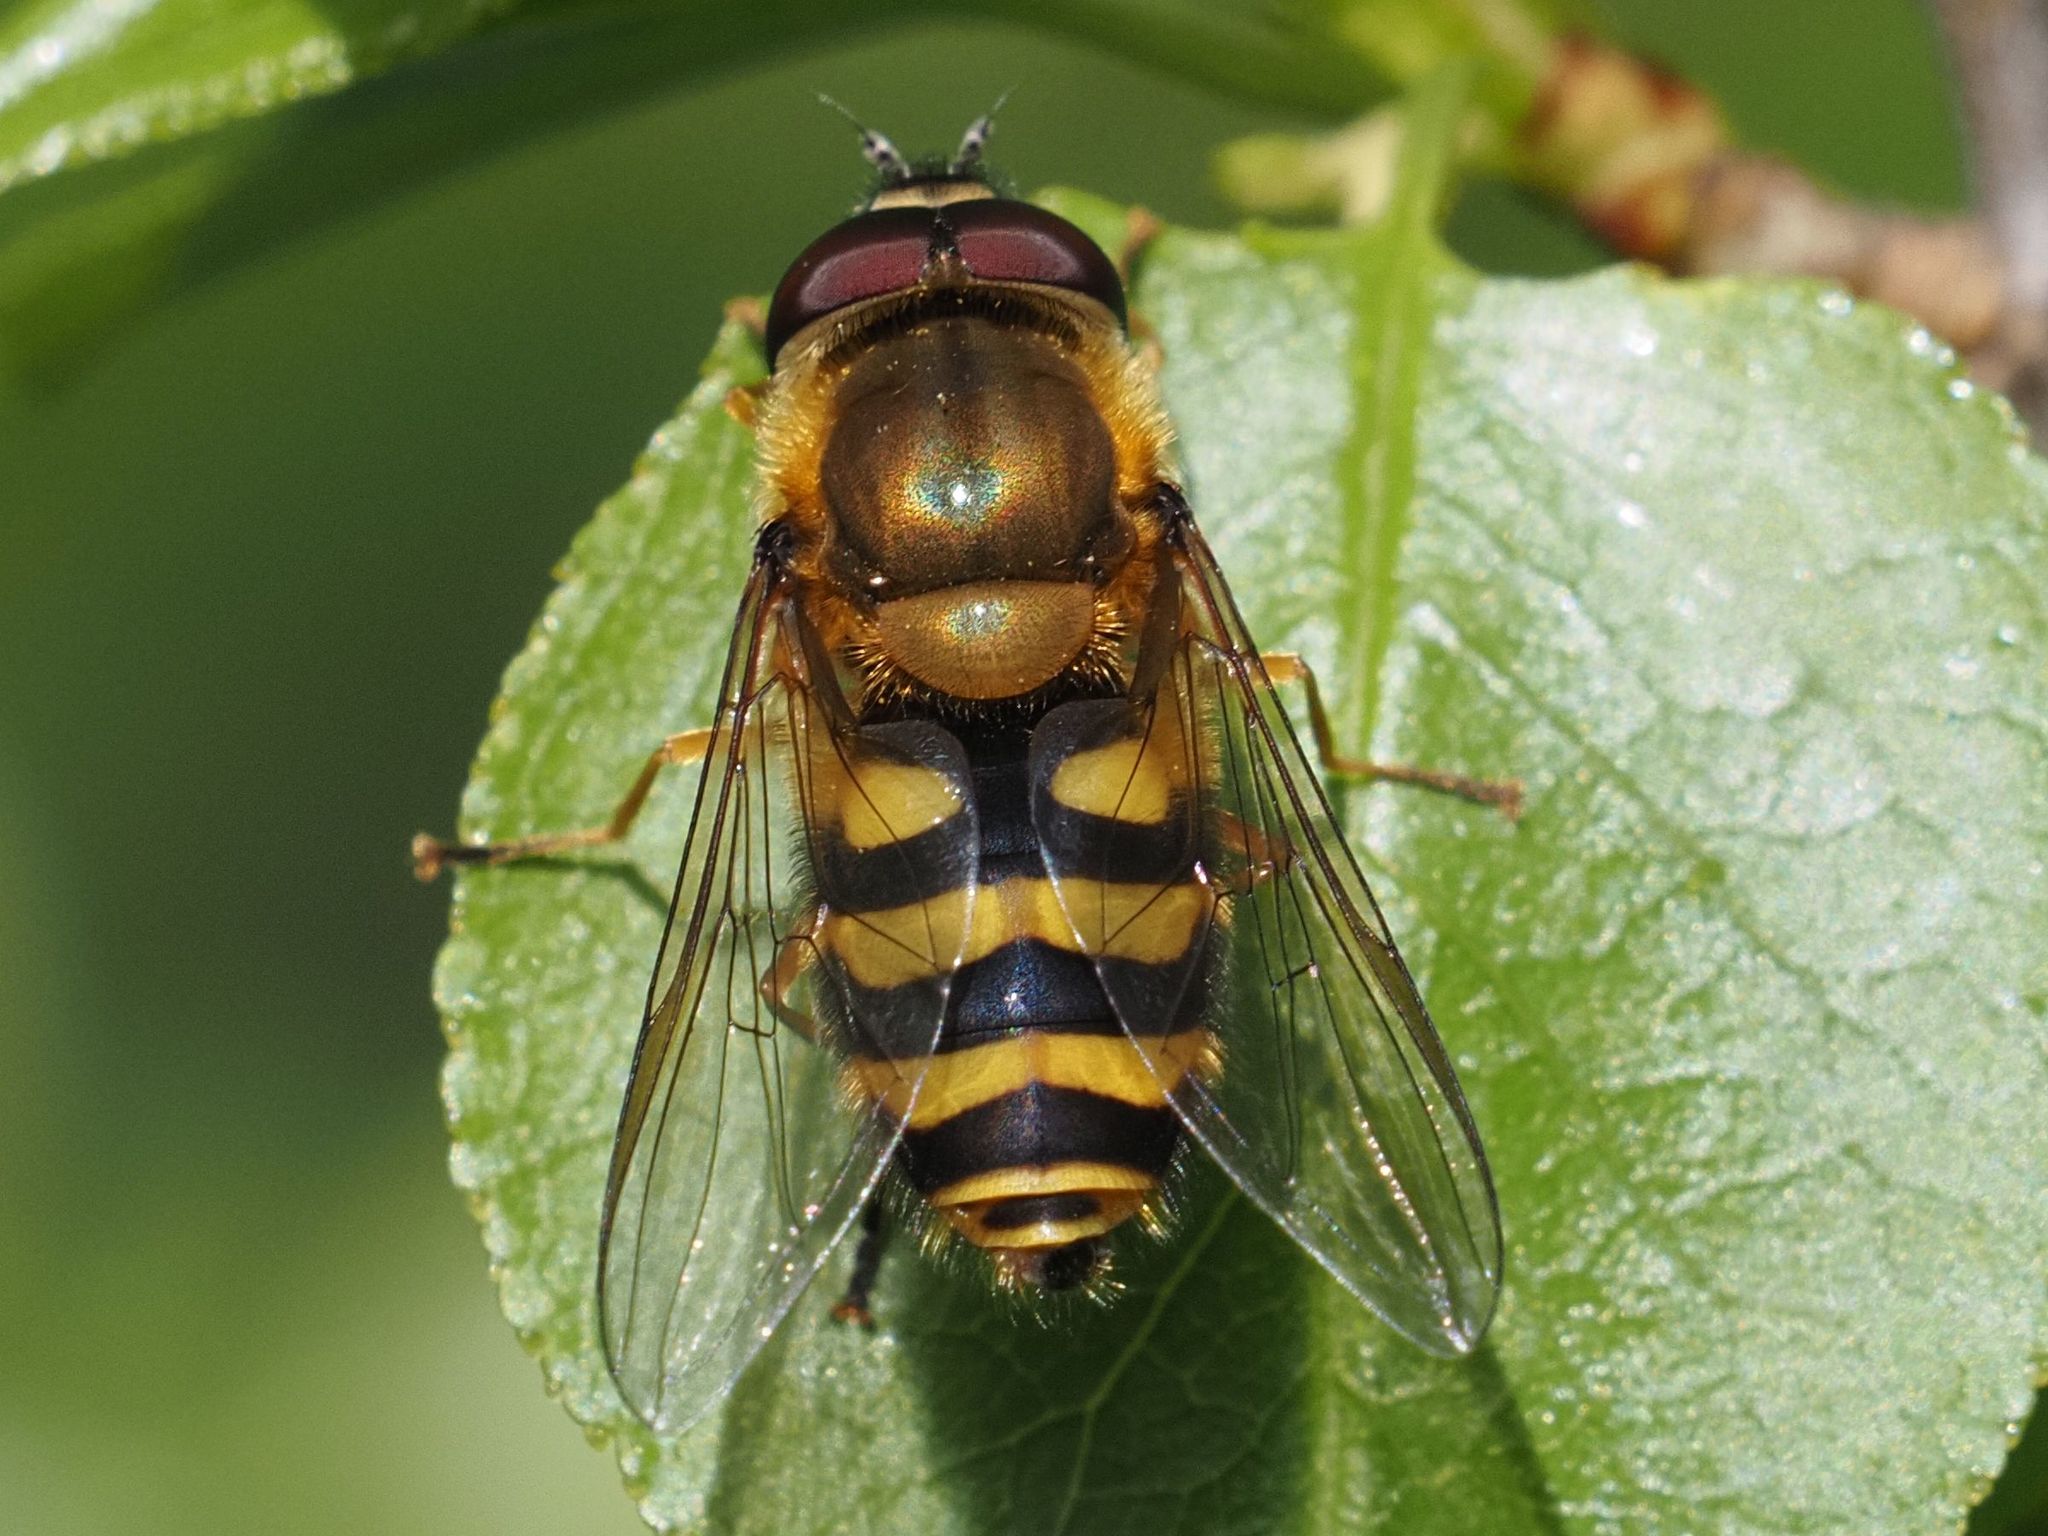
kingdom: Animalia
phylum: Arthropoda
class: Insecta
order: Diptera
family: Syrphidae
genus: Syrphus
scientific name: Syrphus
